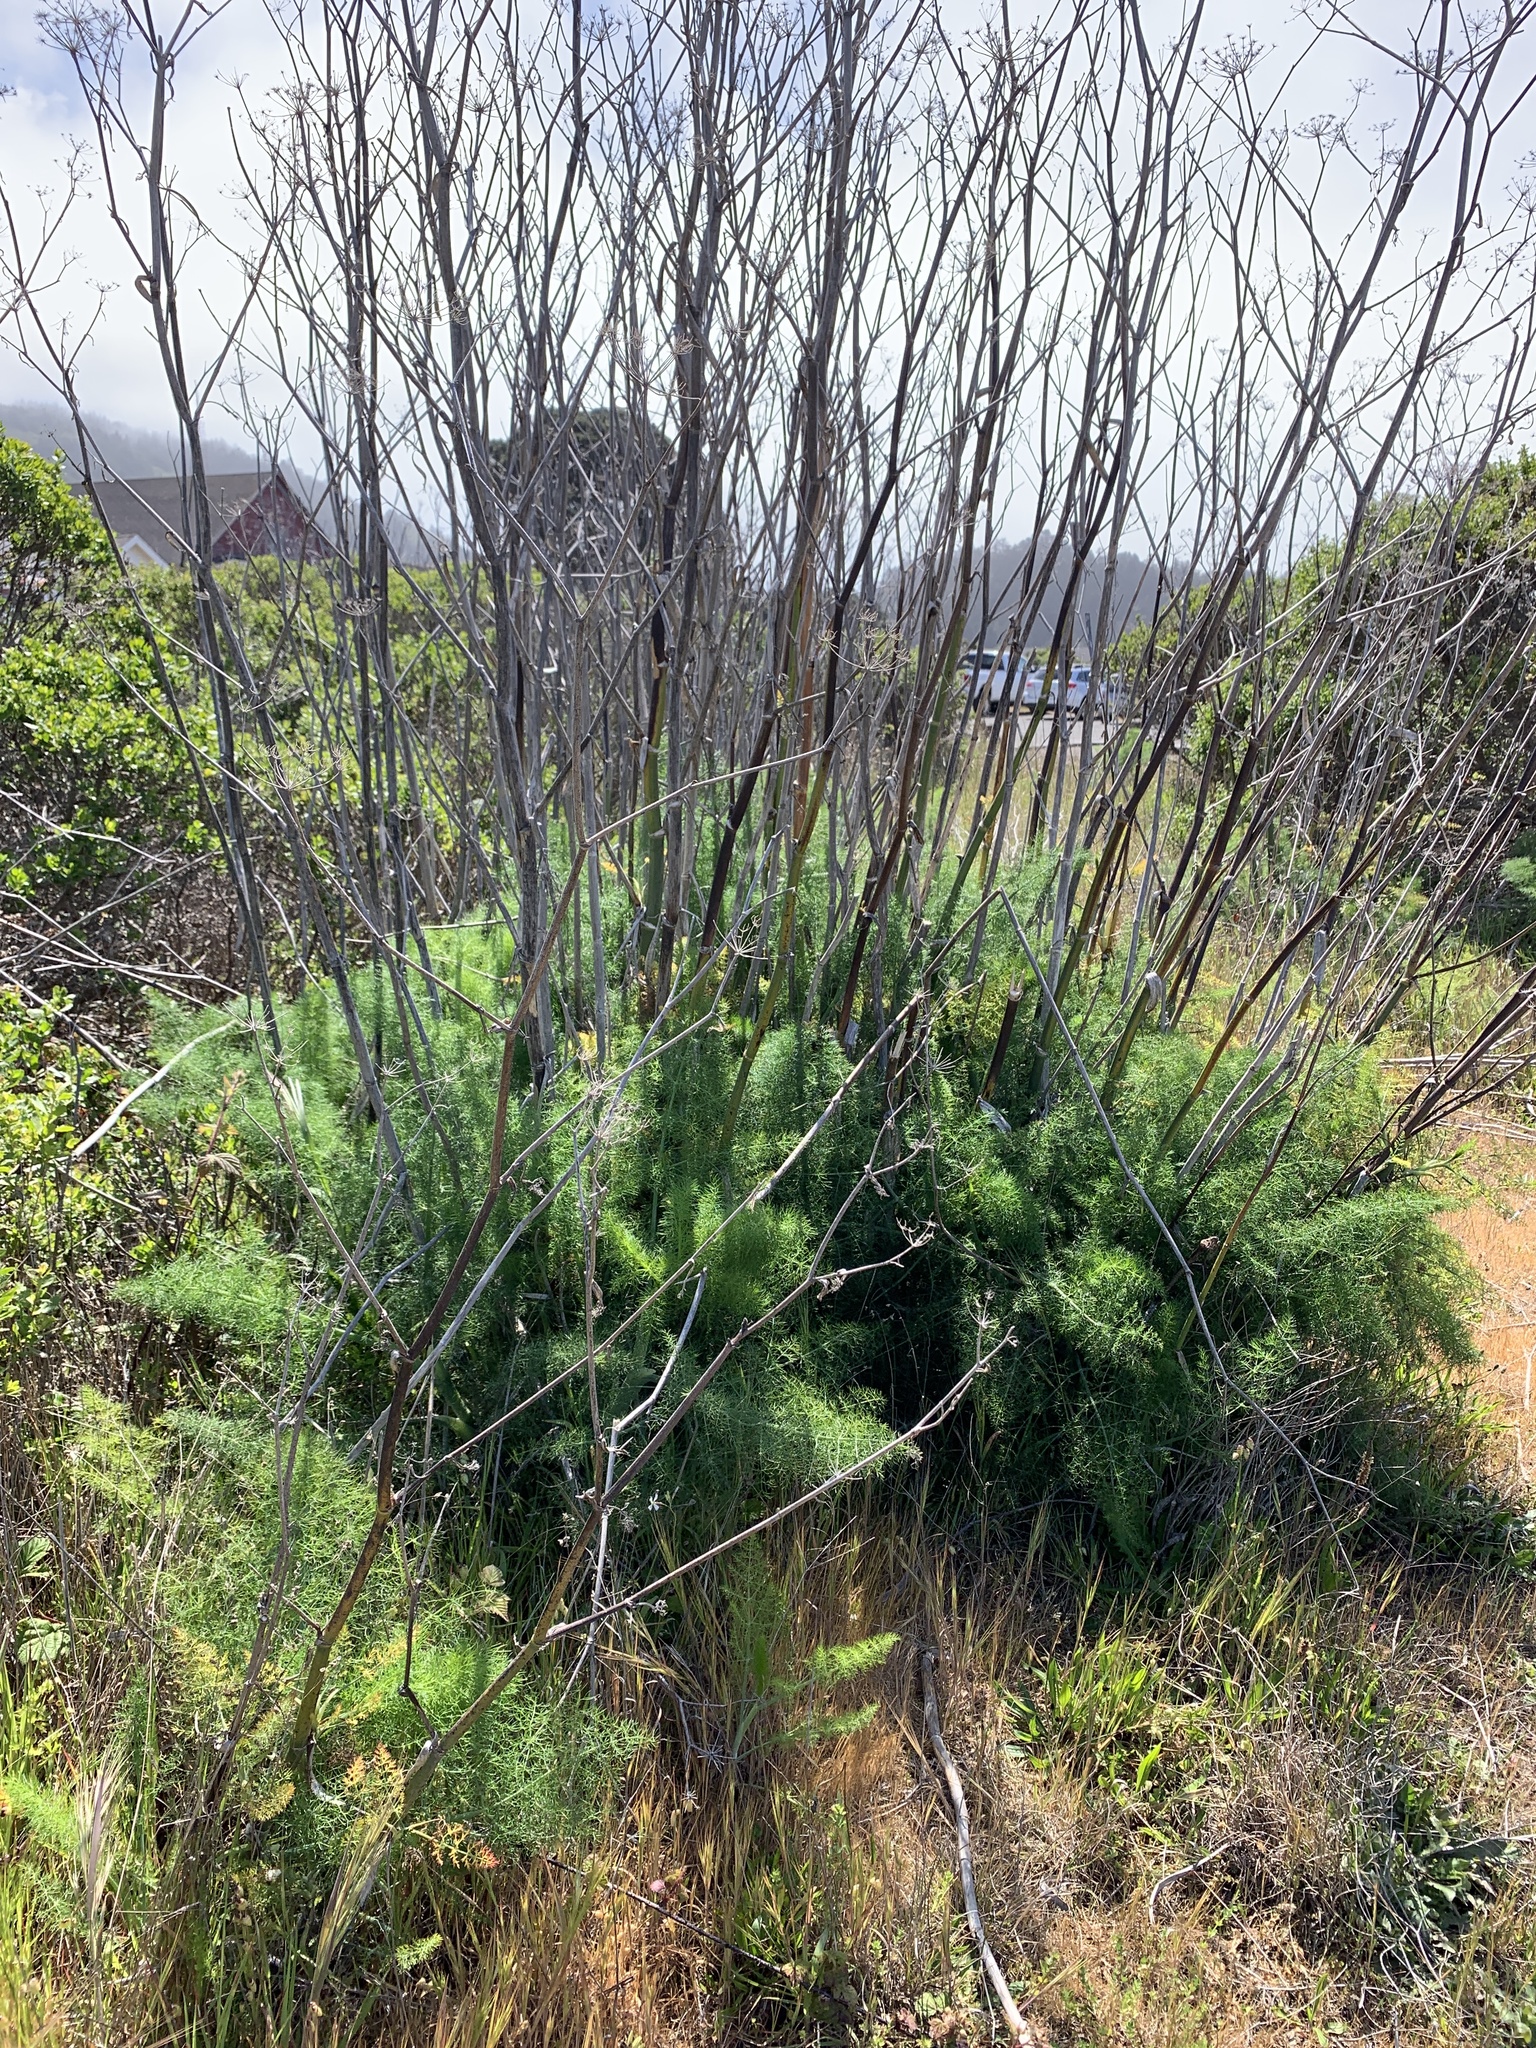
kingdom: Plantae
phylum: Tracheophyta
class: Magnoliopsida
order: Apiales
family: Apiaceae
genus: Foeniculum
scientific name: Foeniculum vulgare
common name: Fennel
